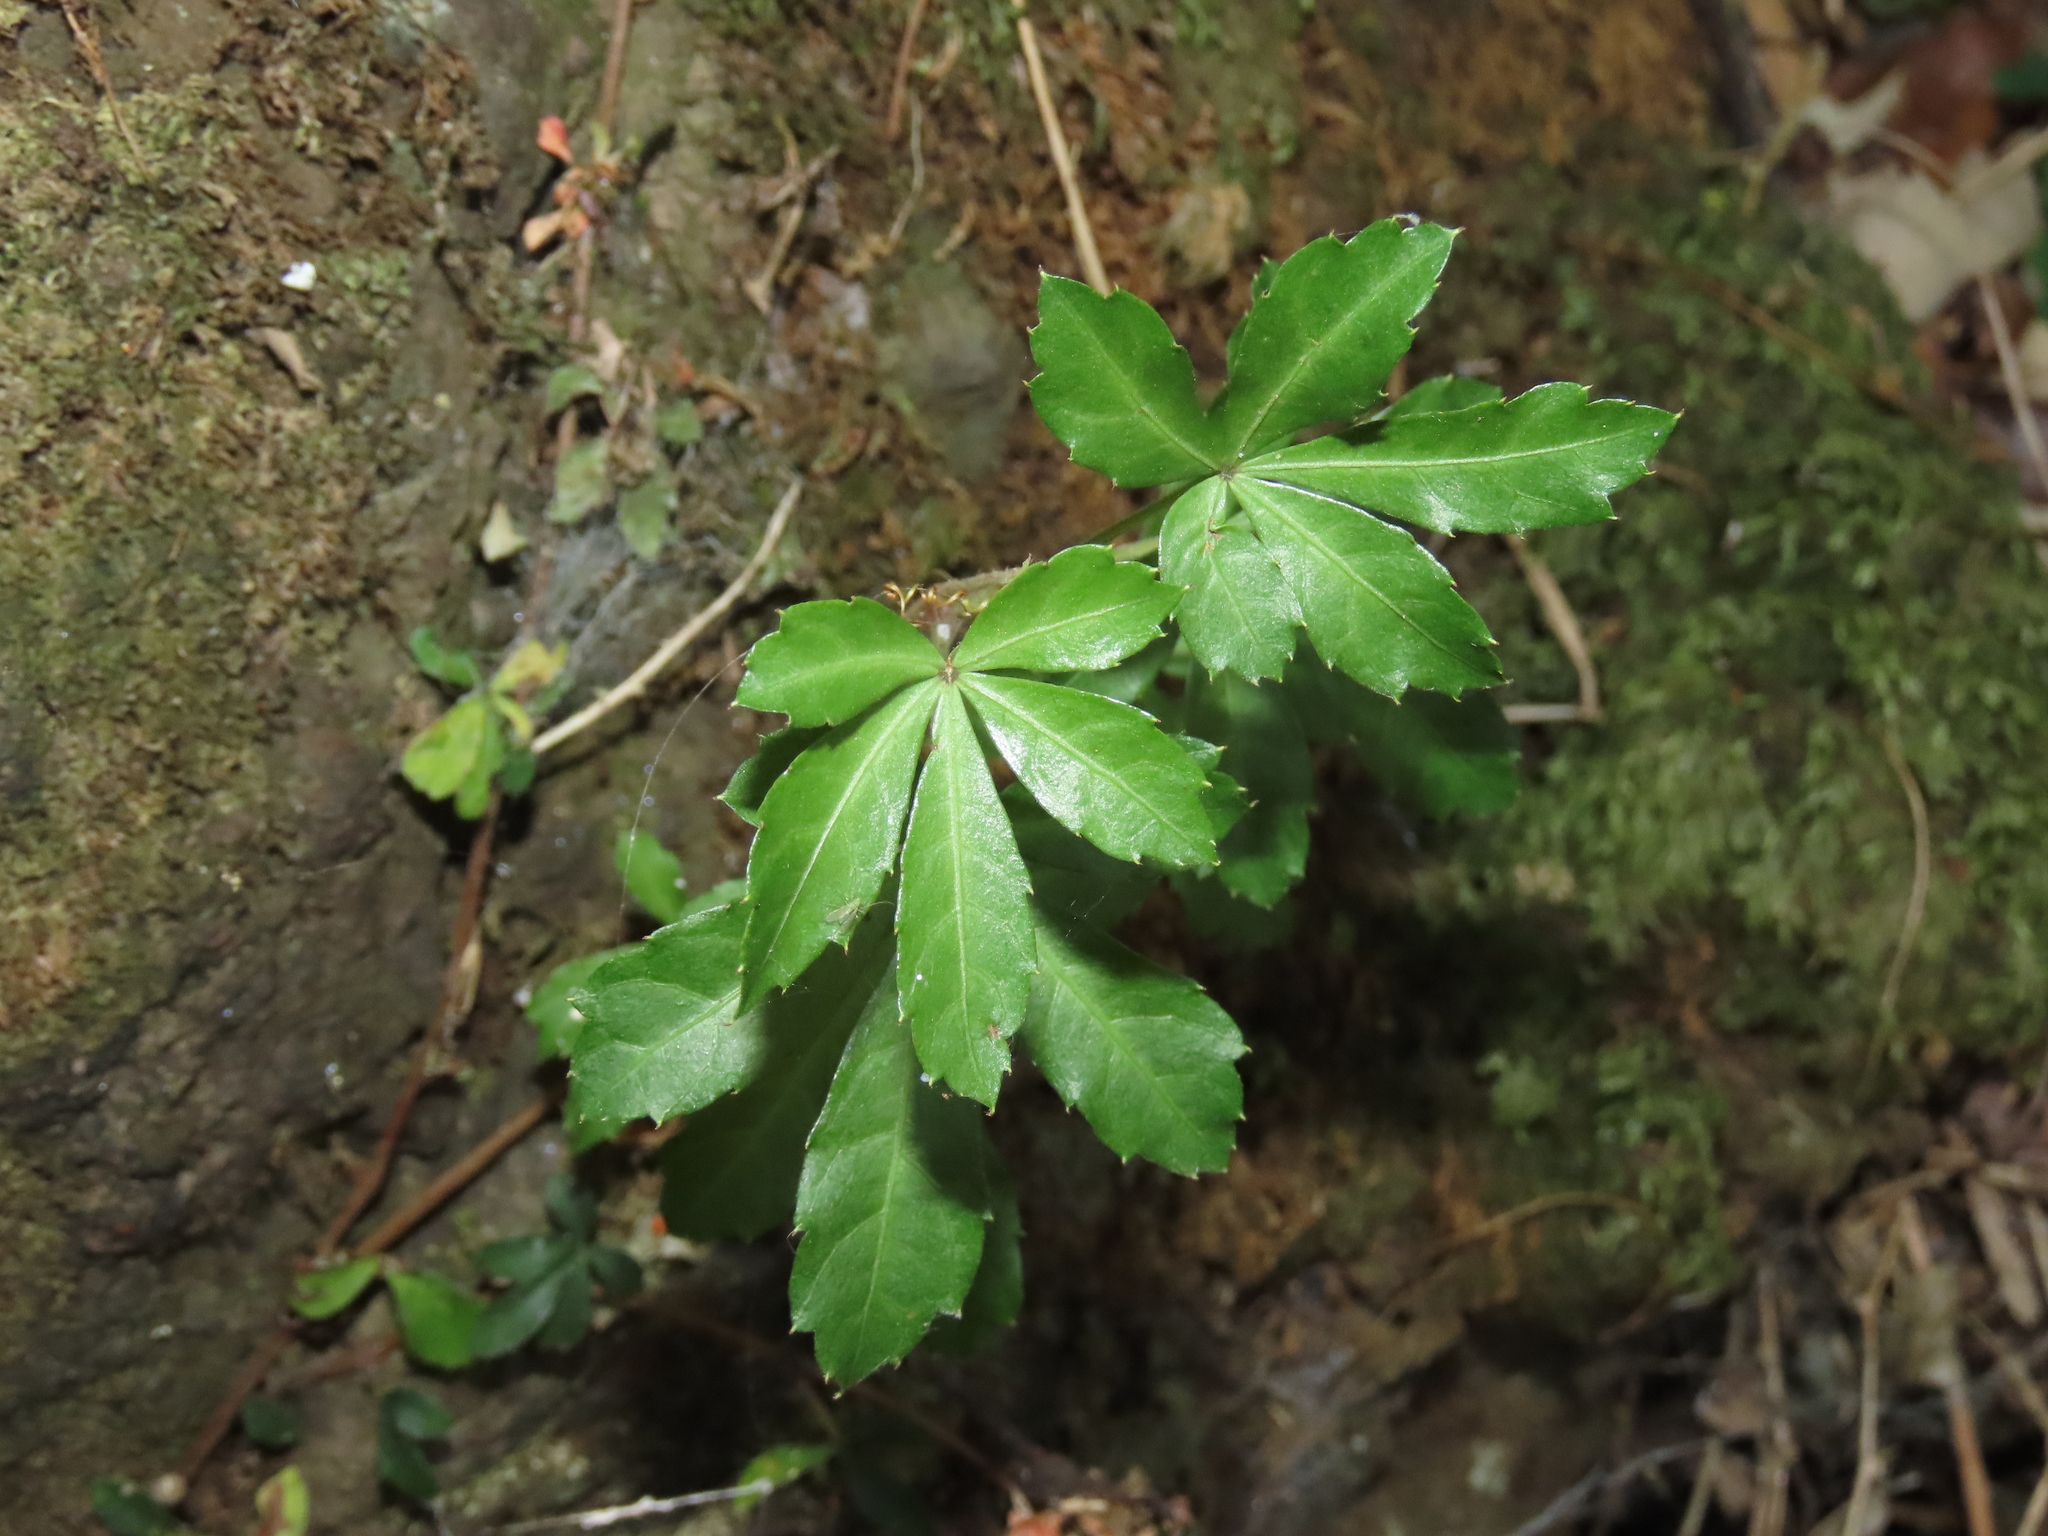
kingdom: Plantae
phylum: Tracheophyta
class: Magnoliopsida
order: Vitales
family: Vitaceae
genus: Clematicissus
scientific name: Clematicissus striata
